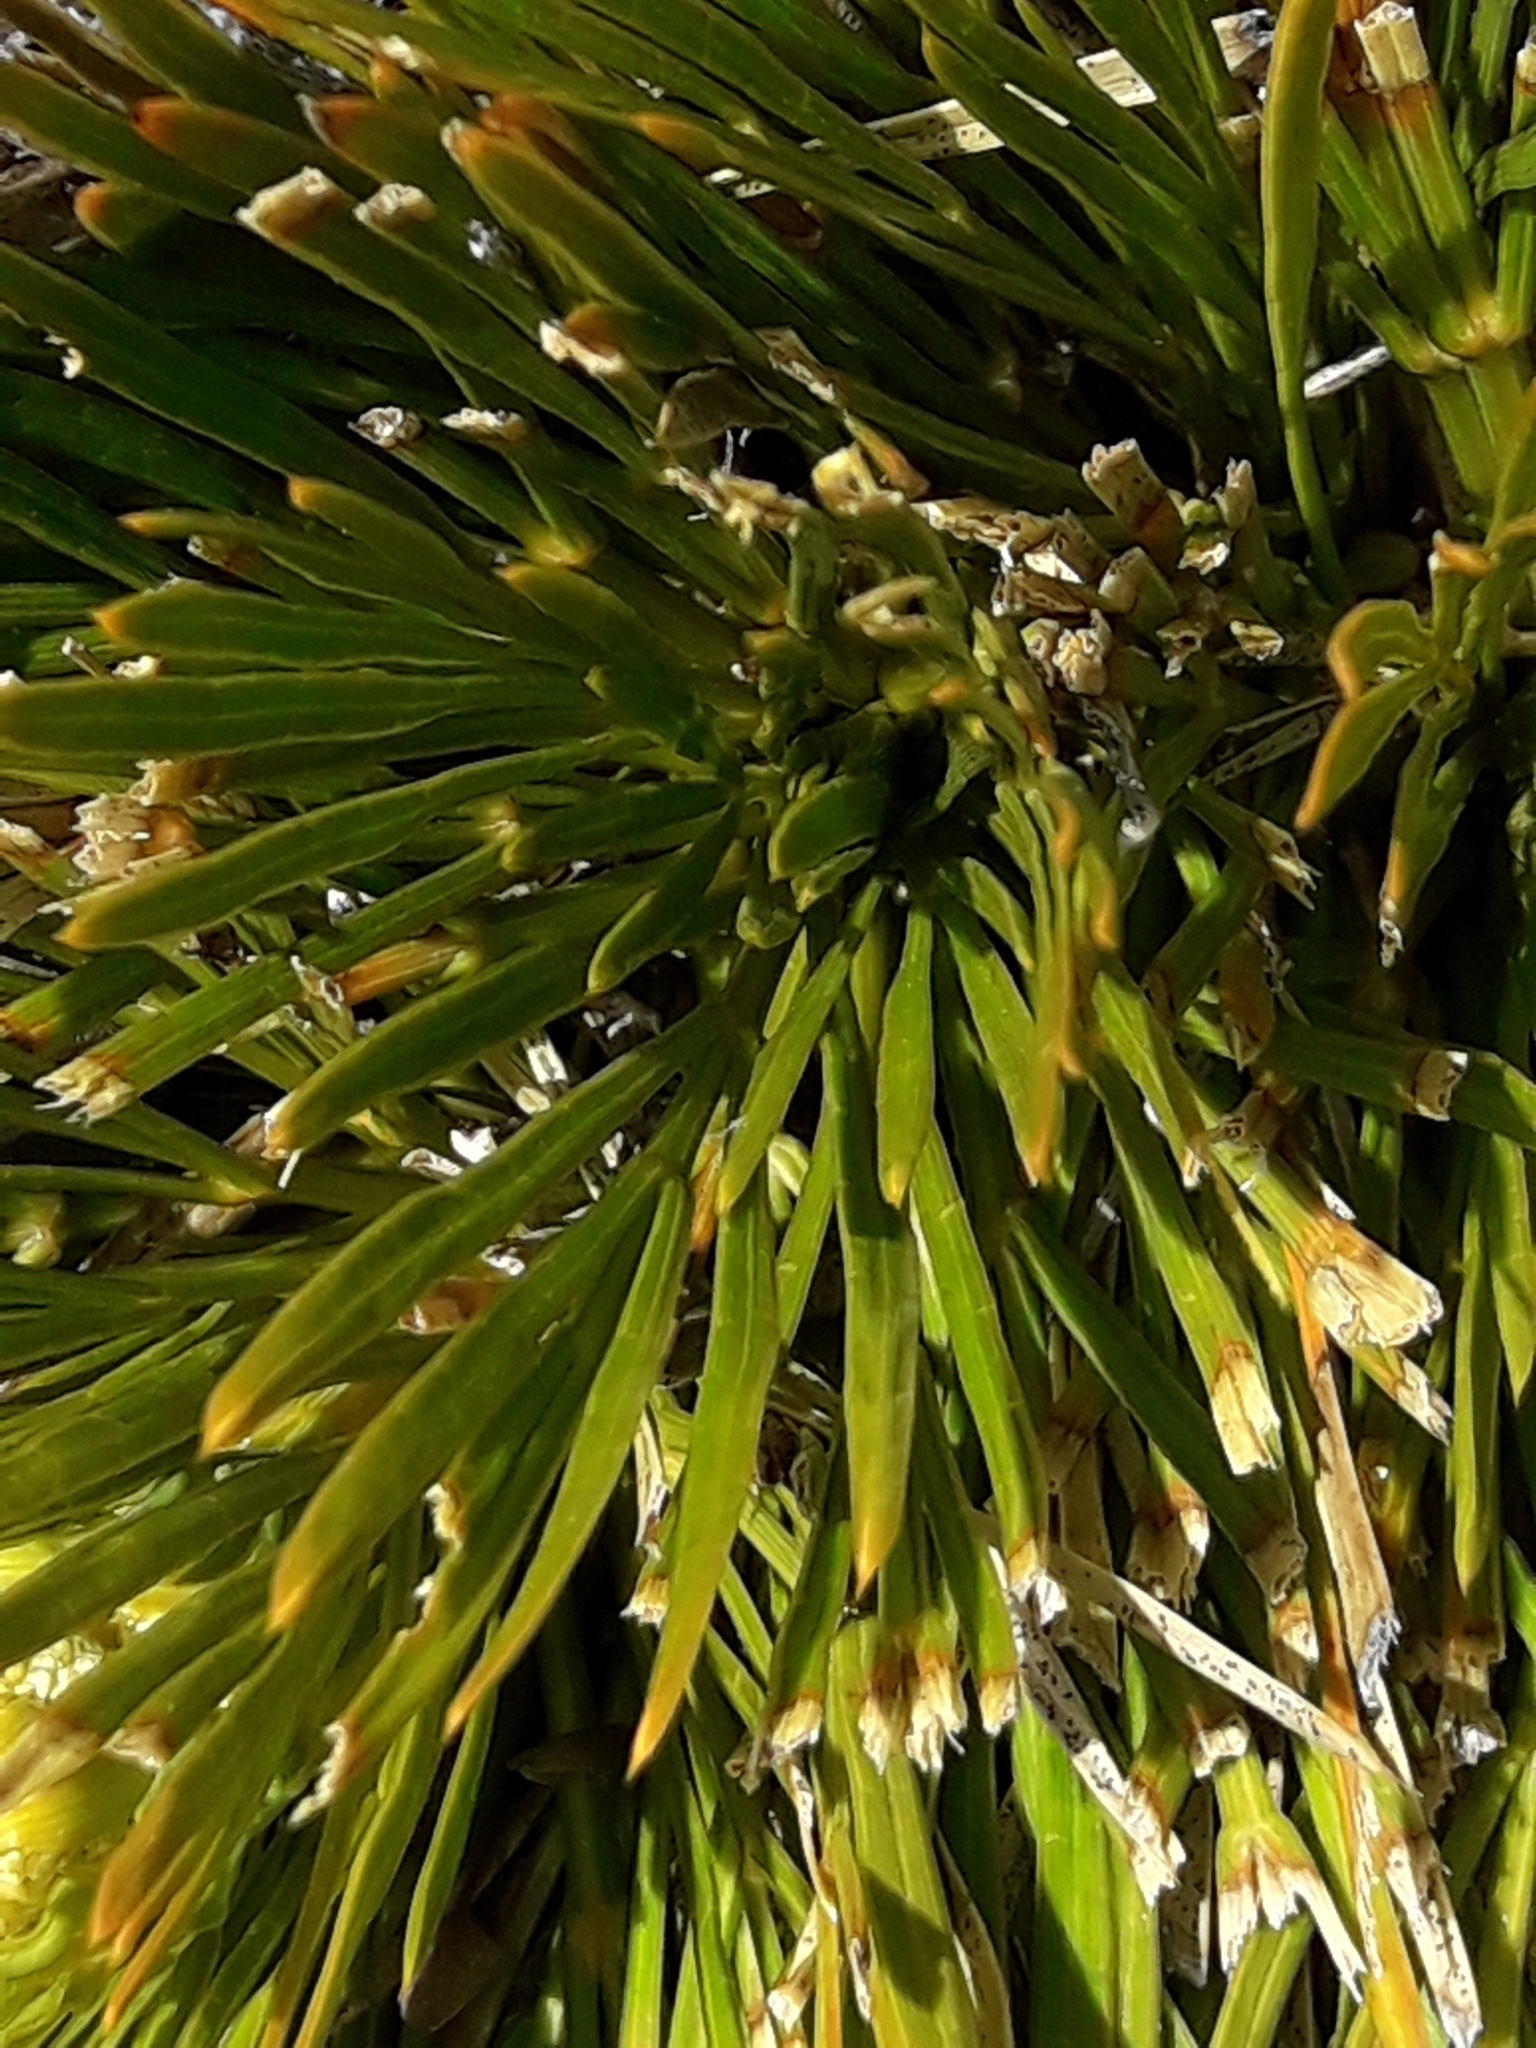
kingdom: Plantae
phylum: Tracheophyta
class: Magnoliopsida
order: Apiales
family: Apiaceae
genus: Aciphylla
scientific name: Aciphylla montana
